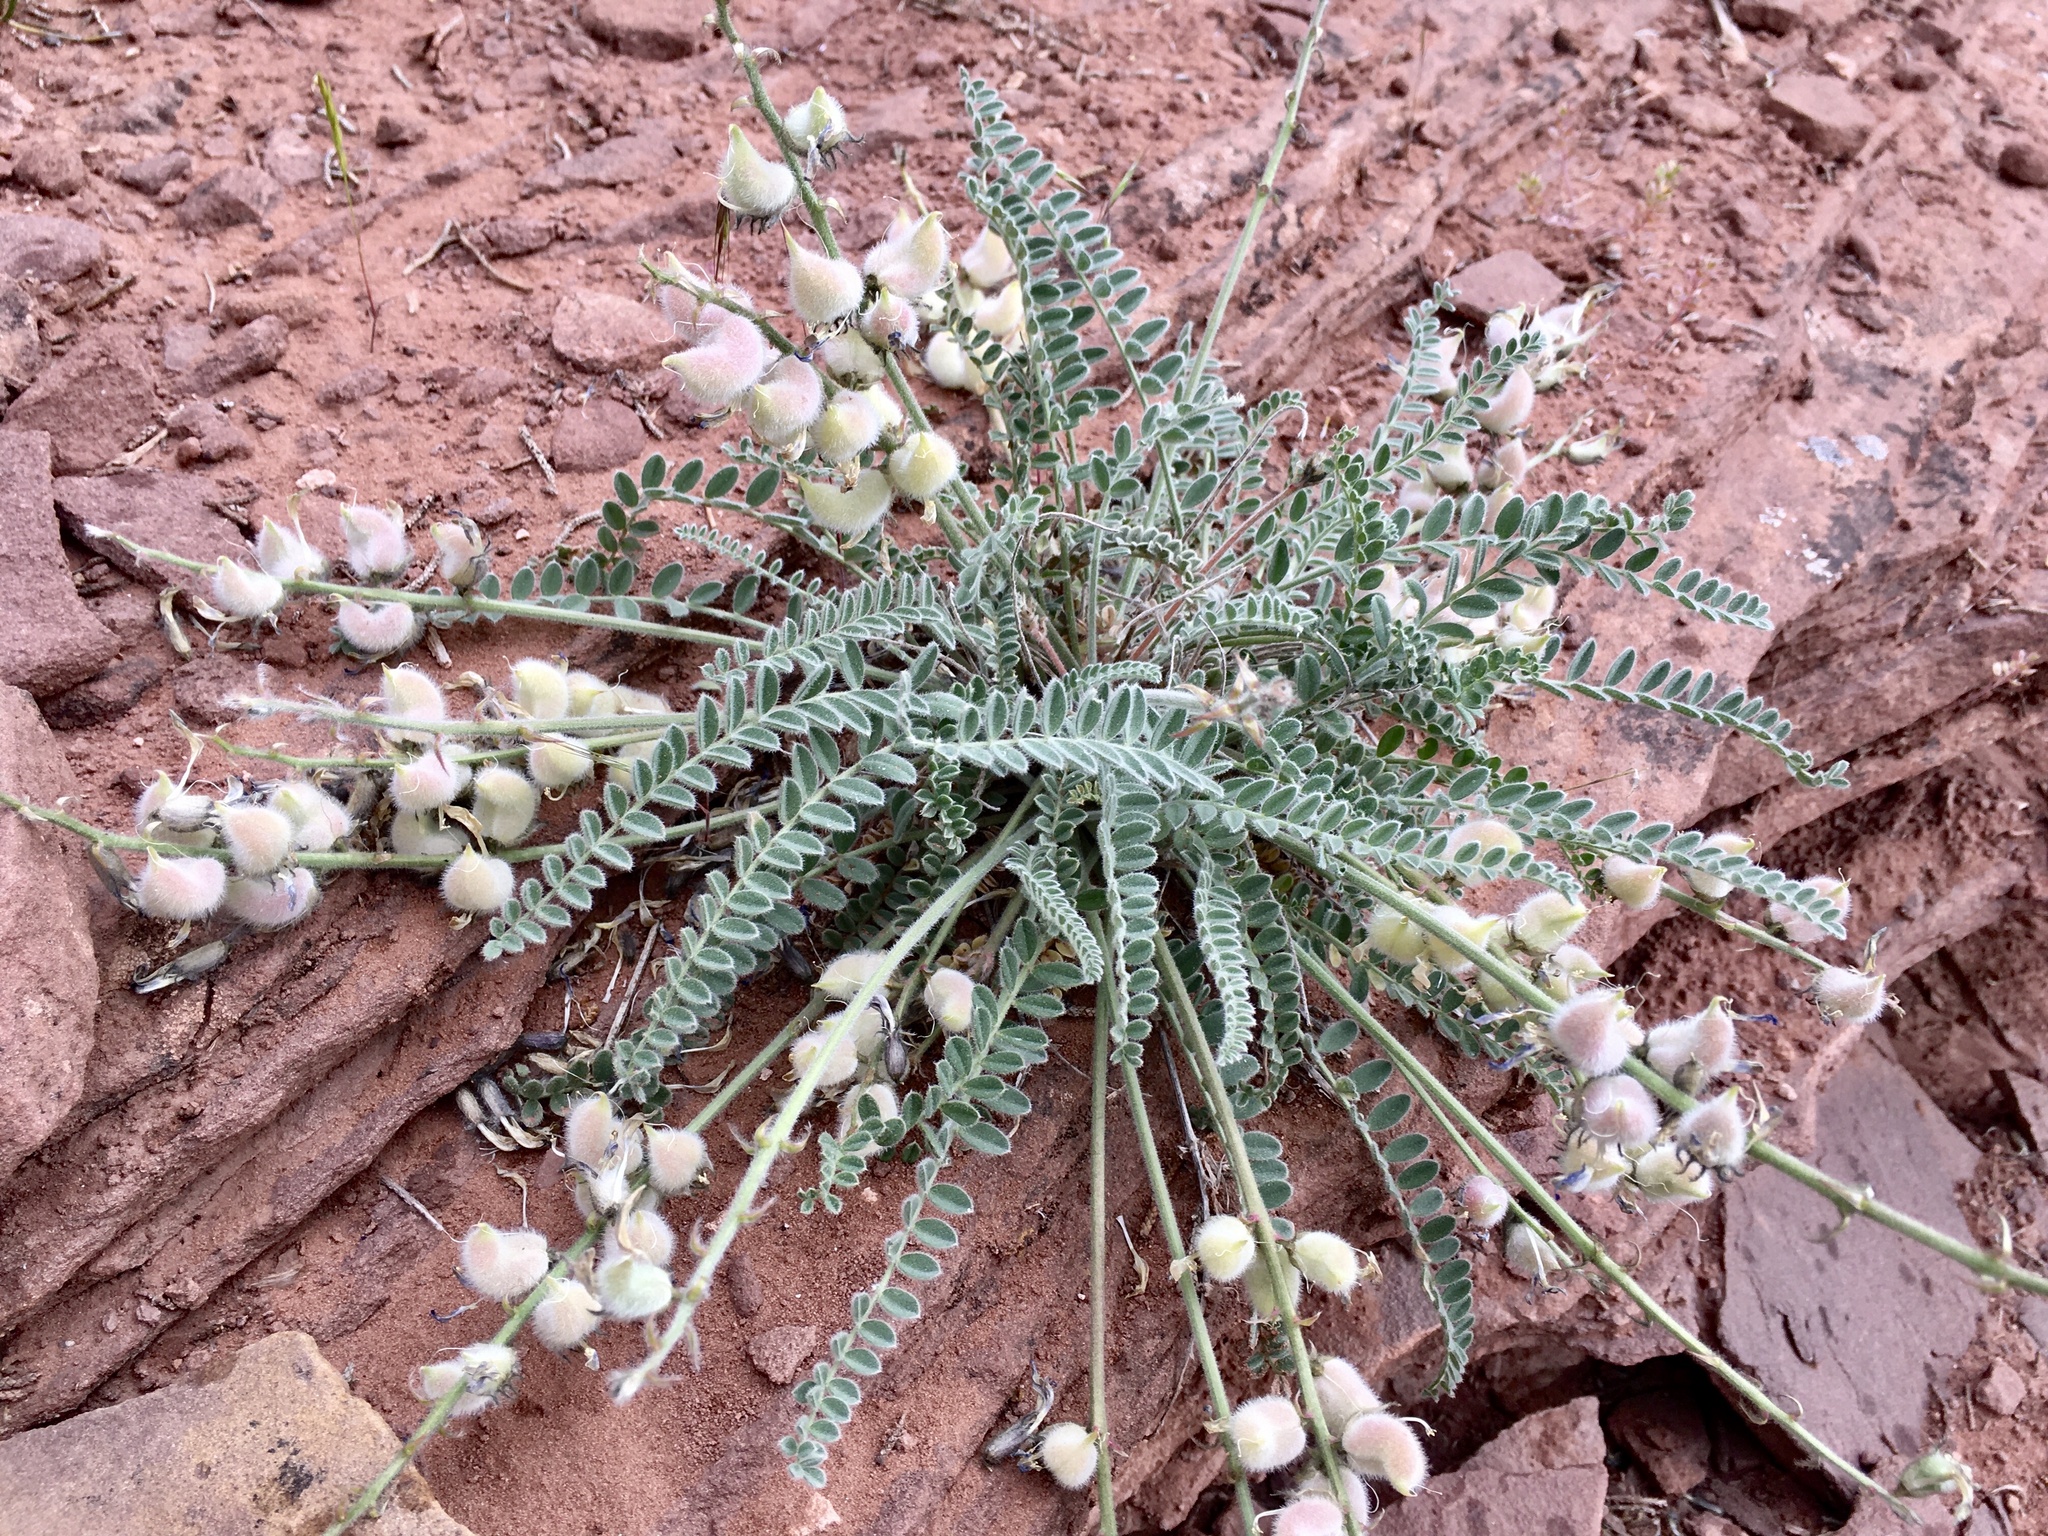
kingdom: Plantae
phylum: Tracheophyta
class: Magnoliopsida
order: Fabales
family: Fabaceae
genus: Astragalus
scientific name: Astragalus mollissimus
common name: Woolly locoweed
